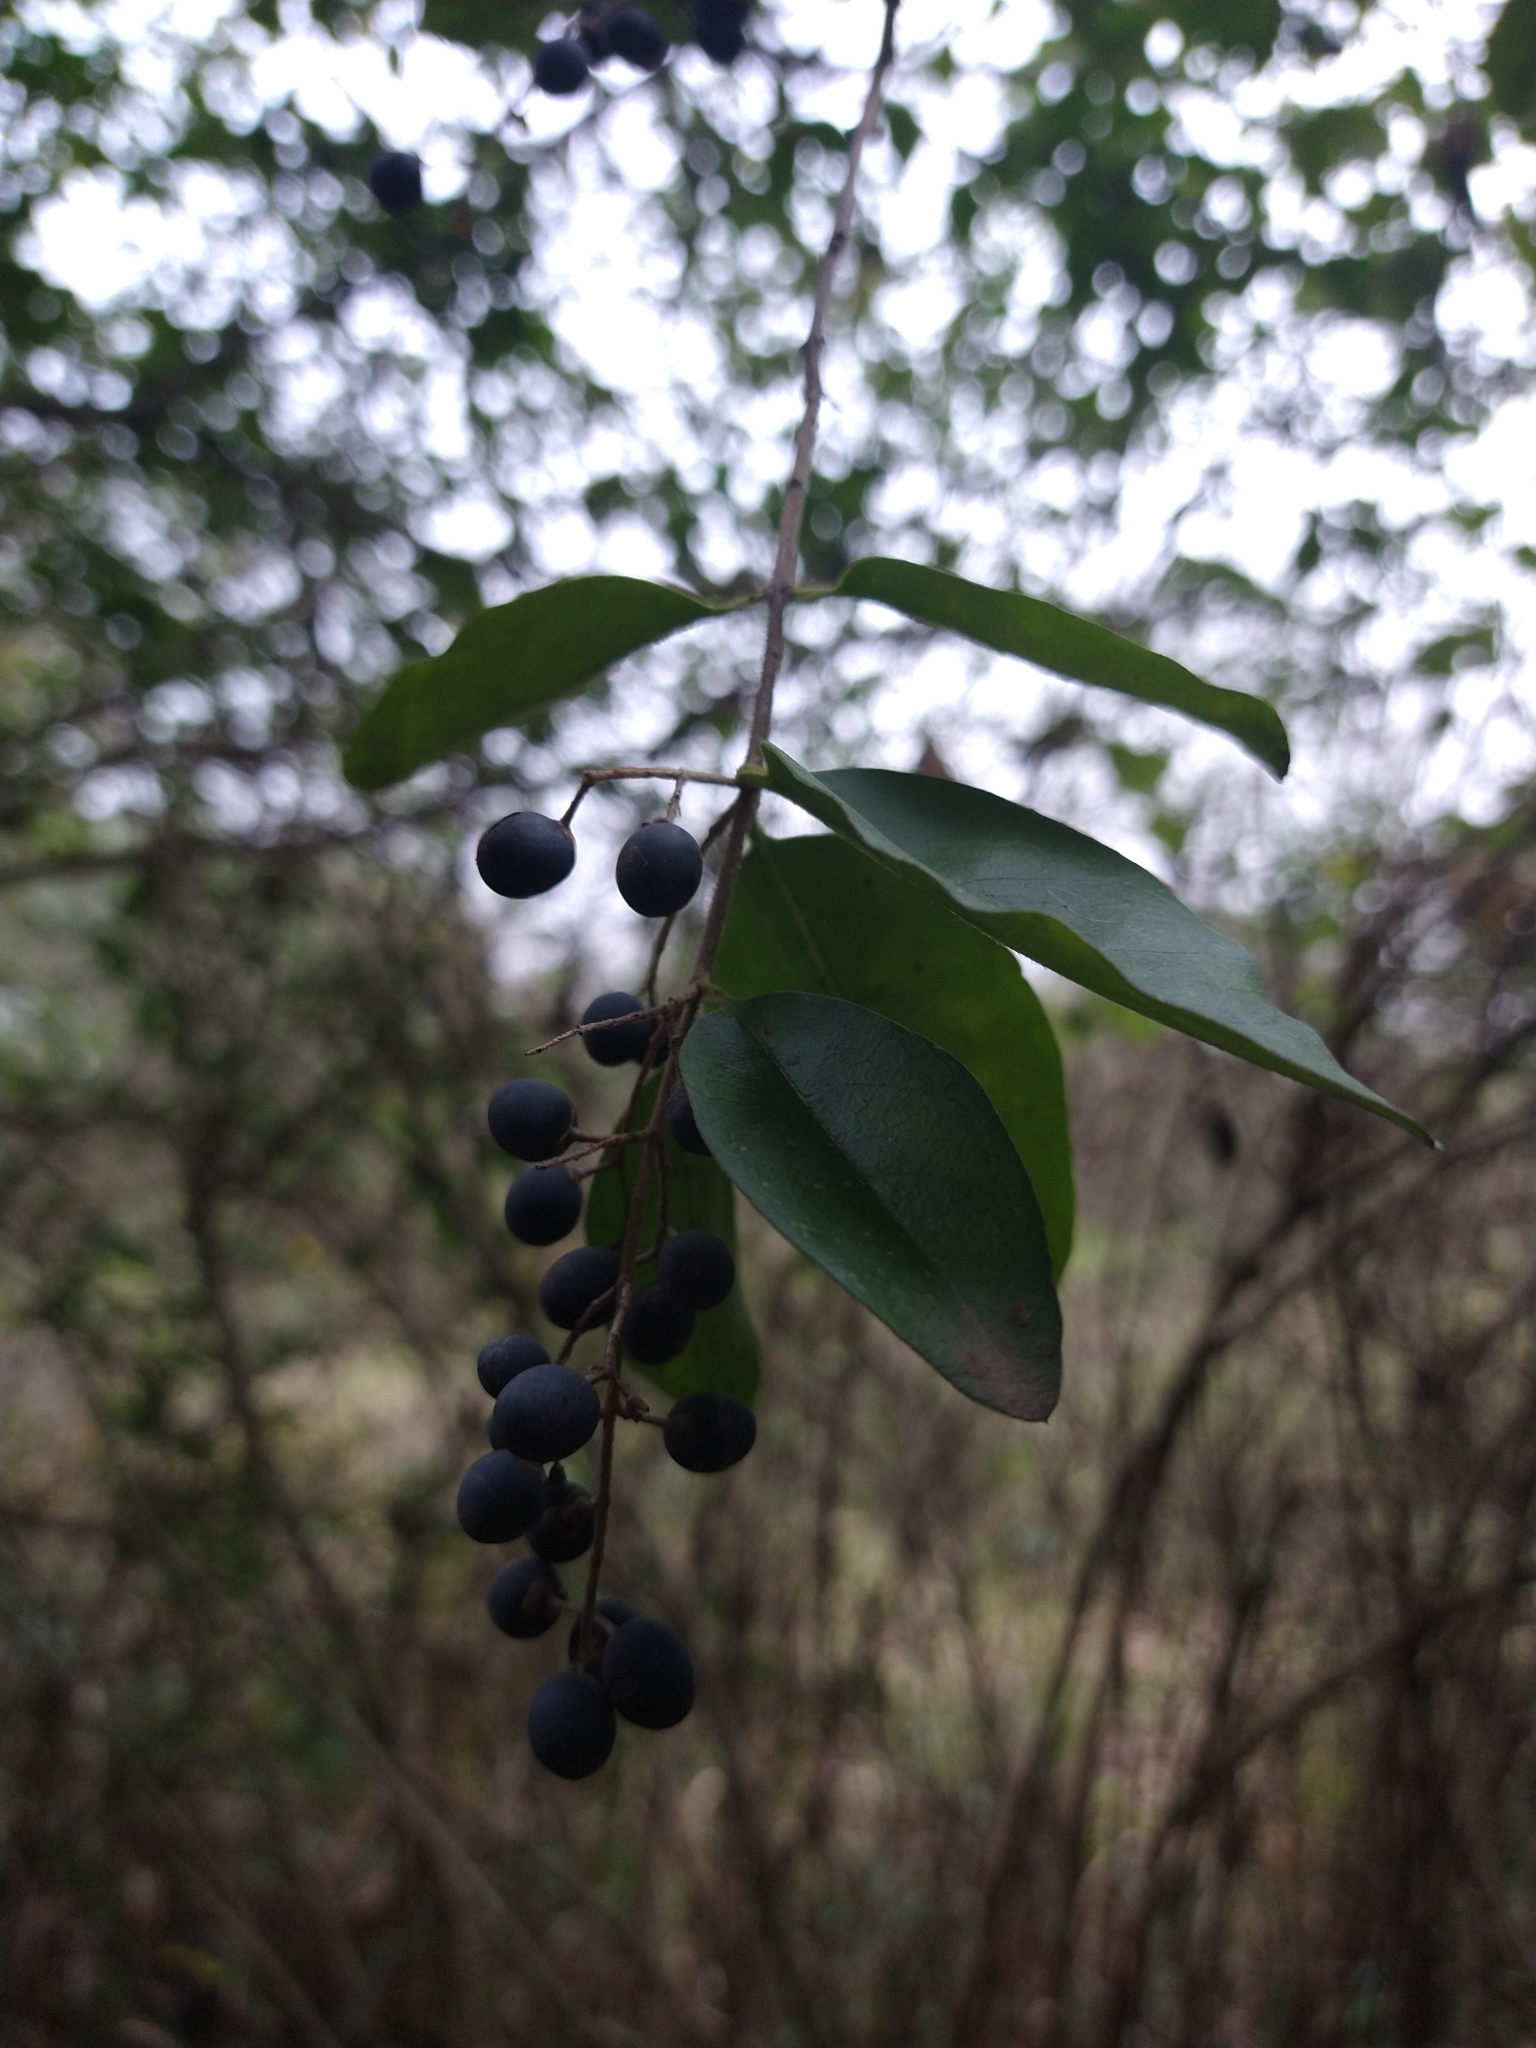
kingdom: Plantae
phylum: Tracheophyta
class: Magnoliopsida
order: Lamiales
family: Oleaceae
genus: Ligustrum
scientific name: Ligustrum lucidum
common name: Glossy privet
